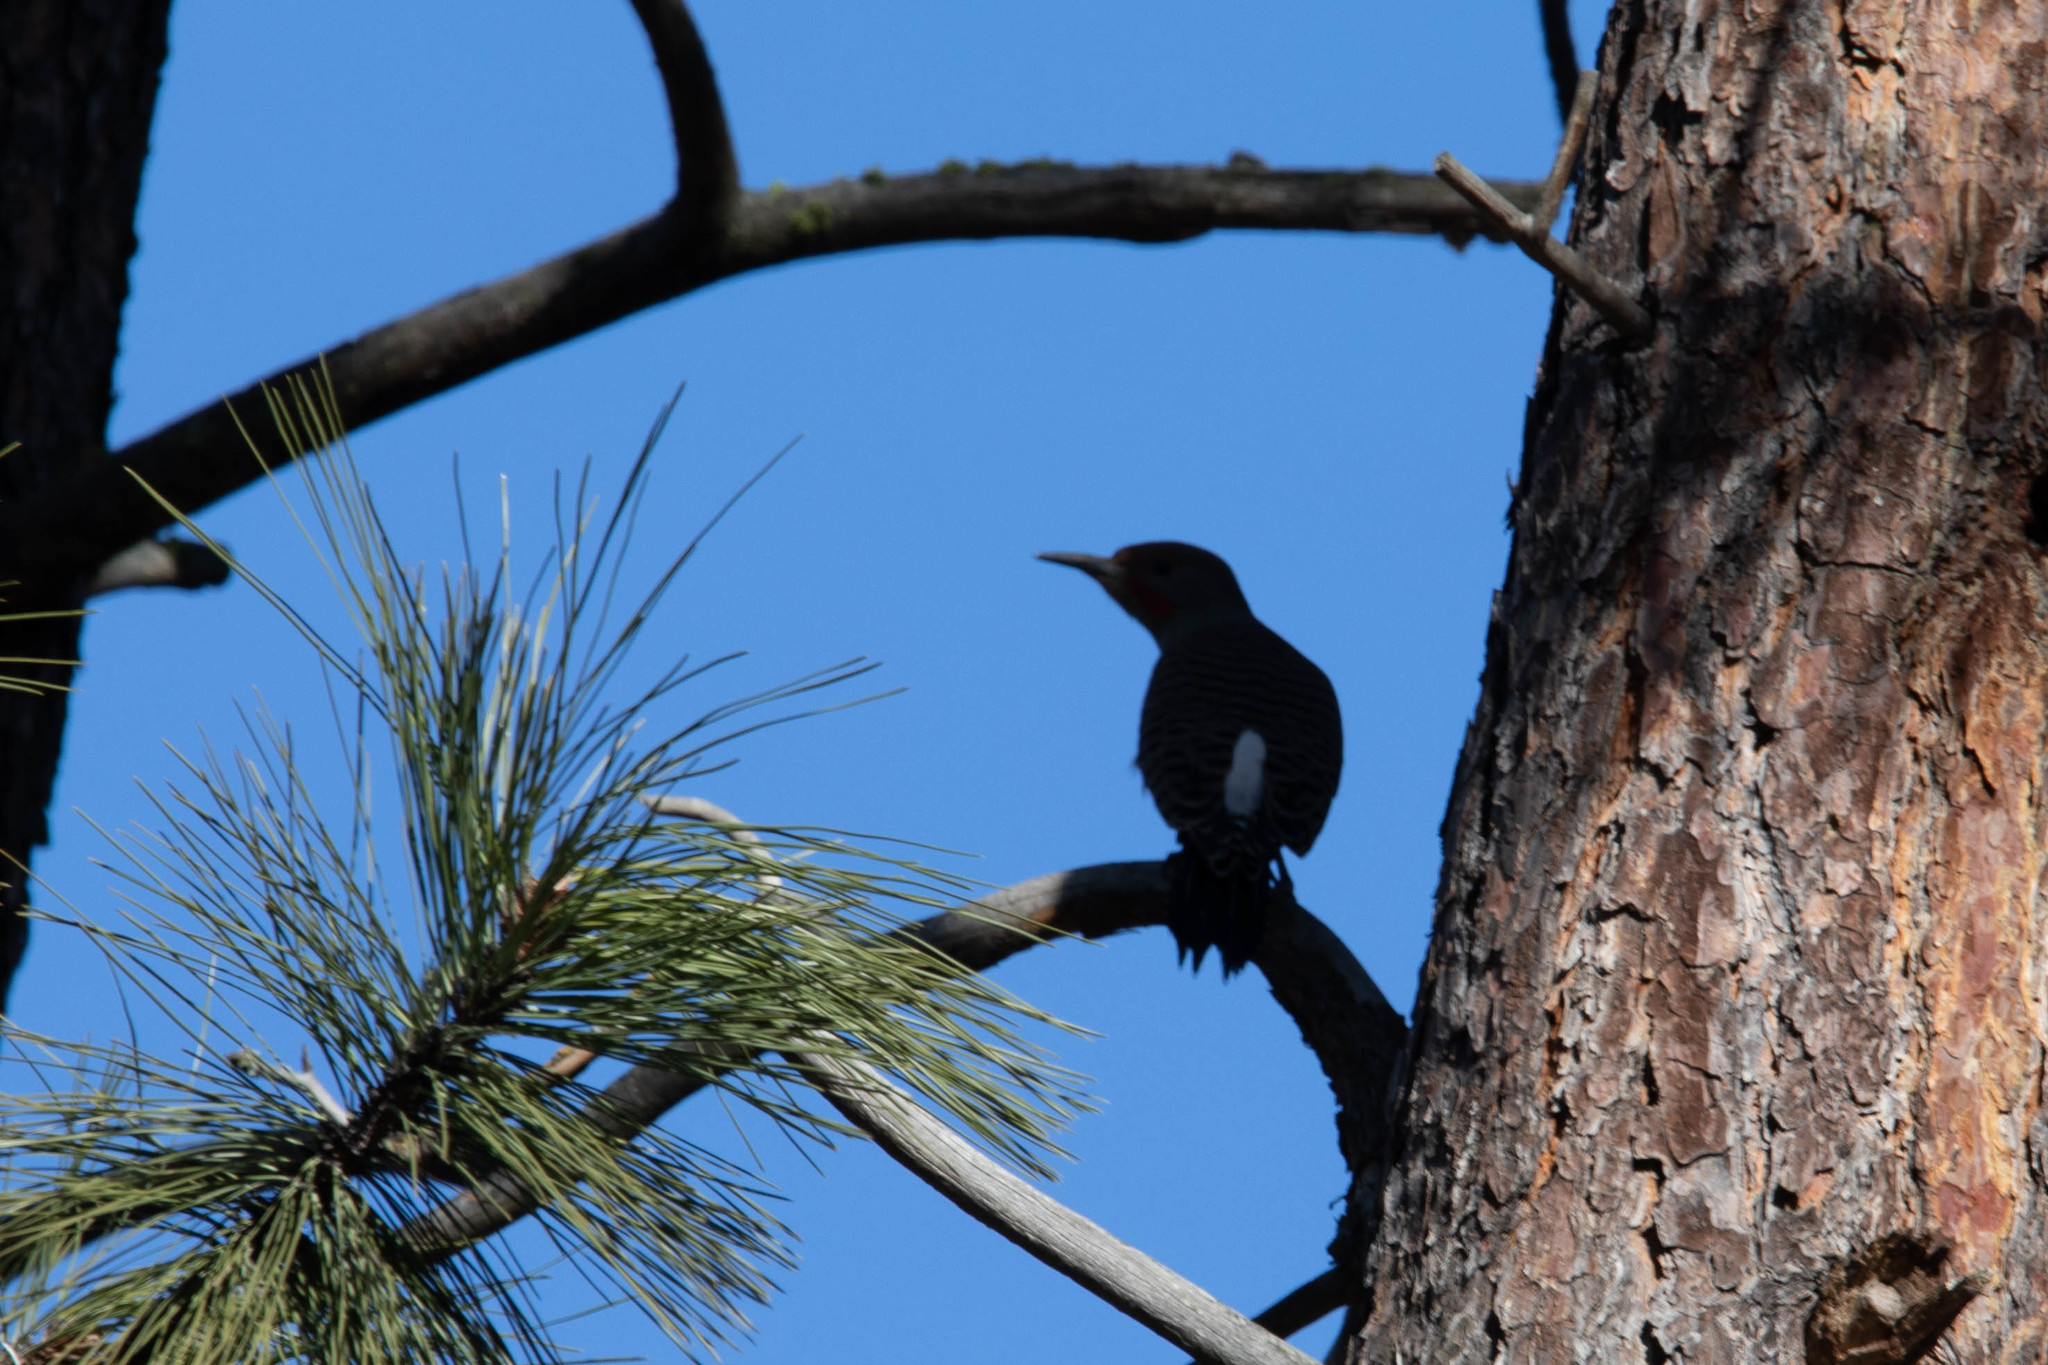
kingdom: Animalia
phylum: Chordata
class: Aves
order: Piciformes
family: Picidae
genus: Colaptes
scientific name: Colaptes auratus
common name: Northern flicker
